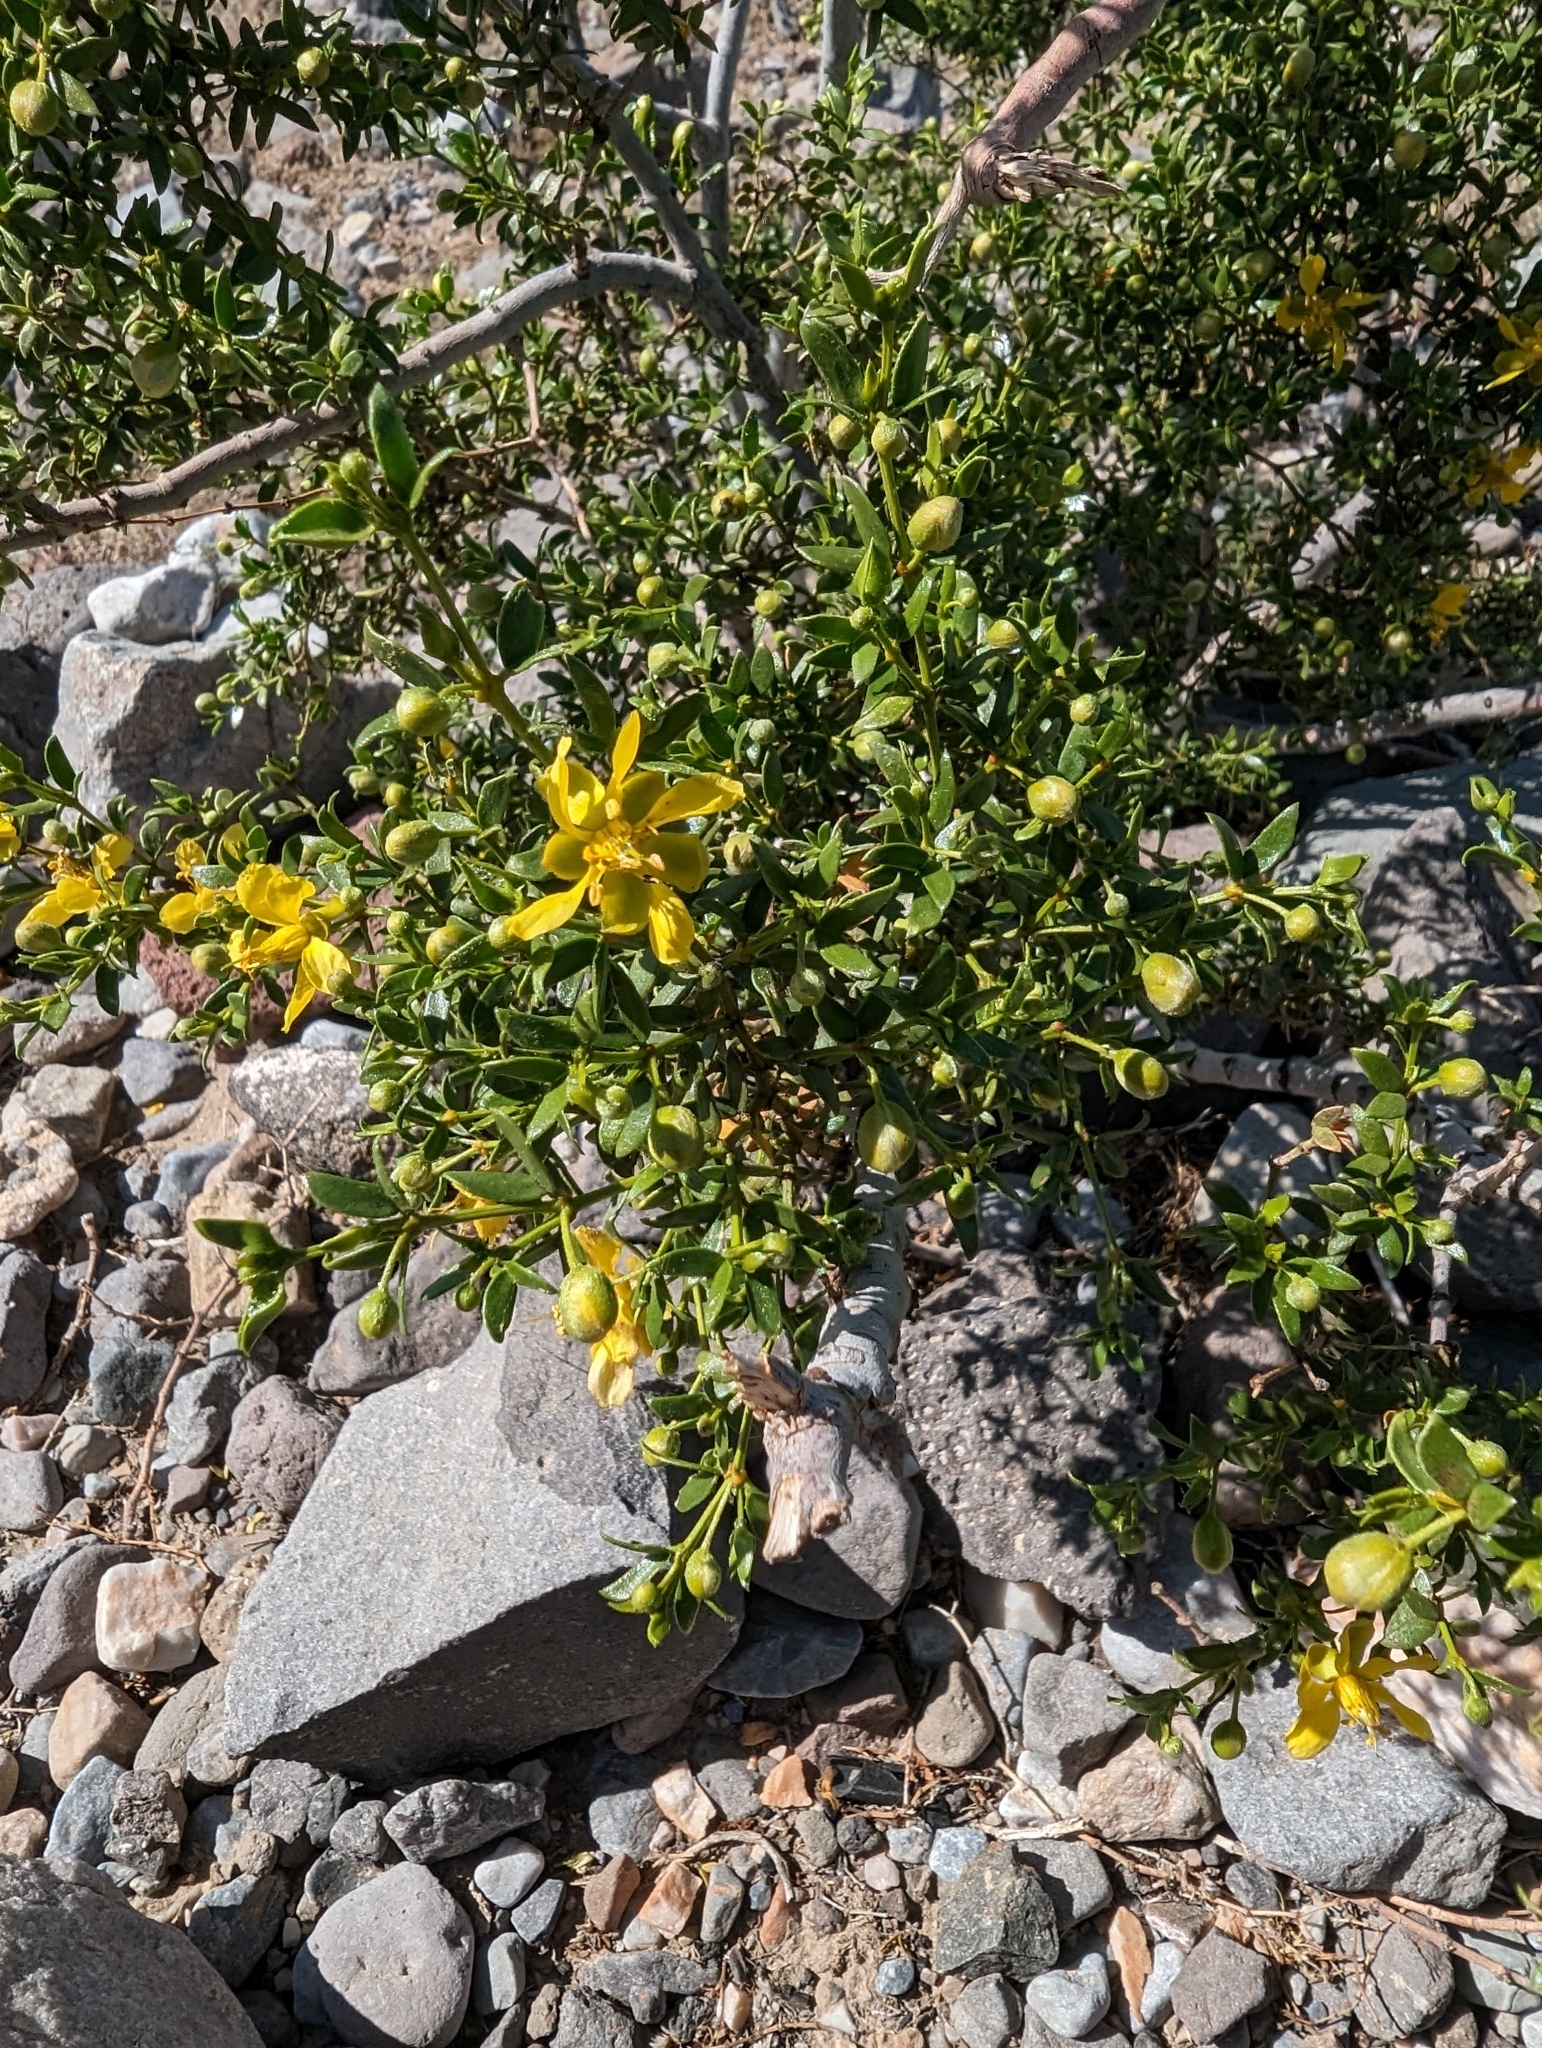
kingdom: Plantae
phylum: Tracheophyta
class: Magnoliopsida
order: Zygophyllales
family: Zygophyllaceae
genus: Larrea
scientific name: Larrea tridentata
